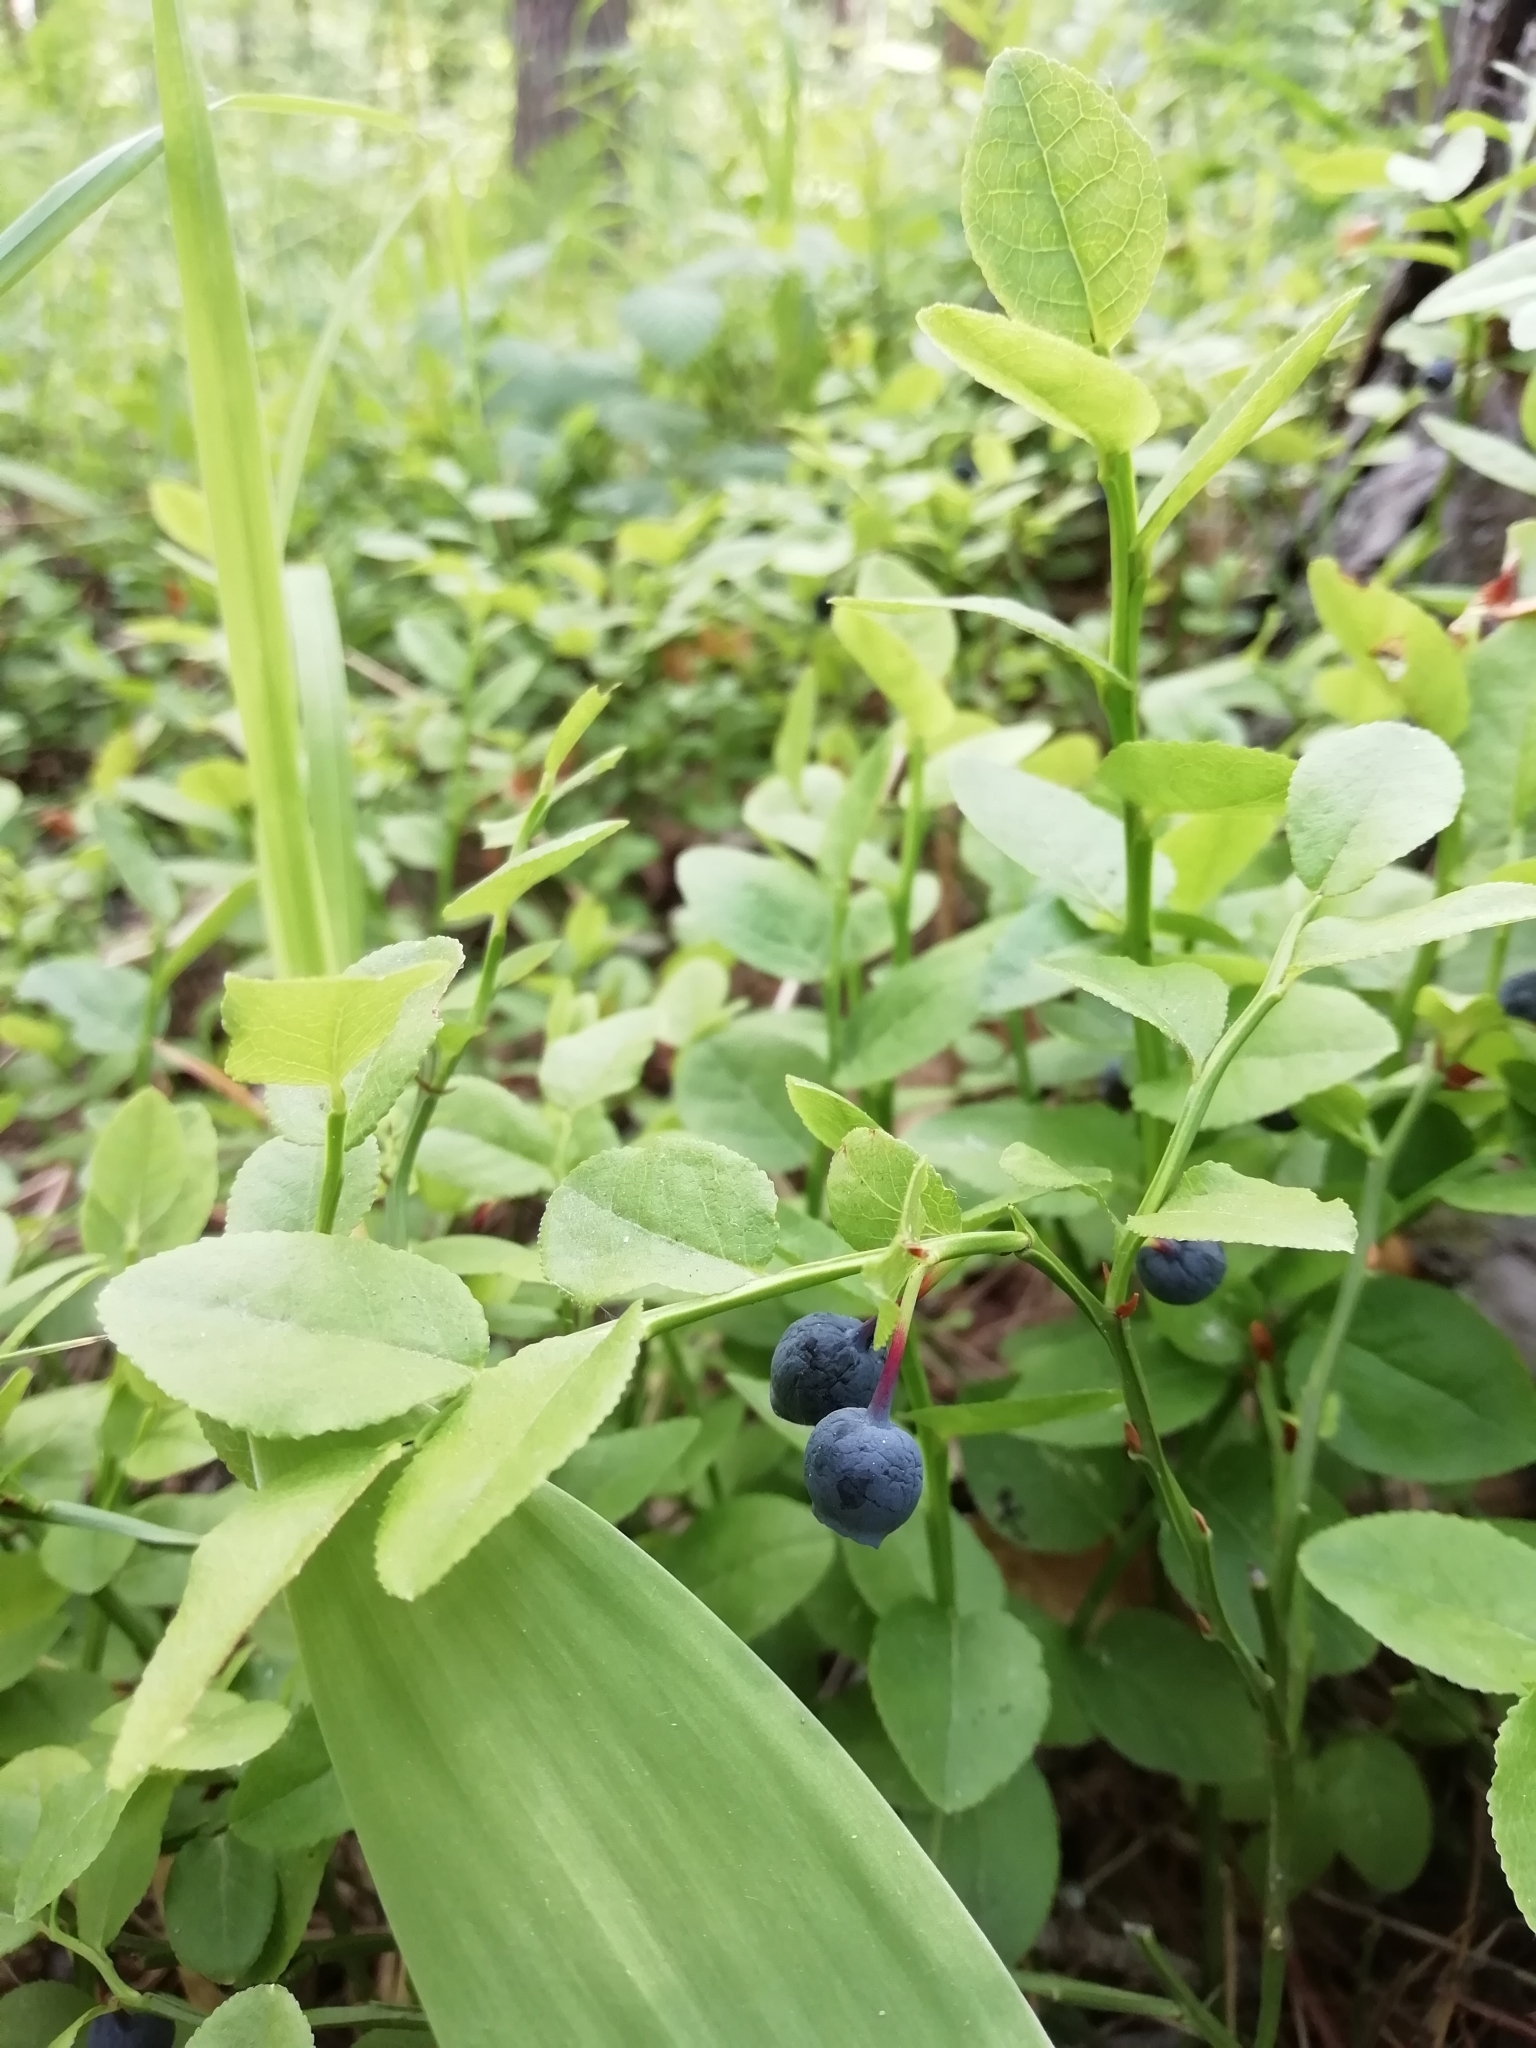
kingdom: Plantae
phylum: Tracheophyta
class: Magnoliopsida
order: Ericales
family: Ericaceae
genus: Vaccinium
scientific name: Vaccinium myrtillus
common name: Bilberry
